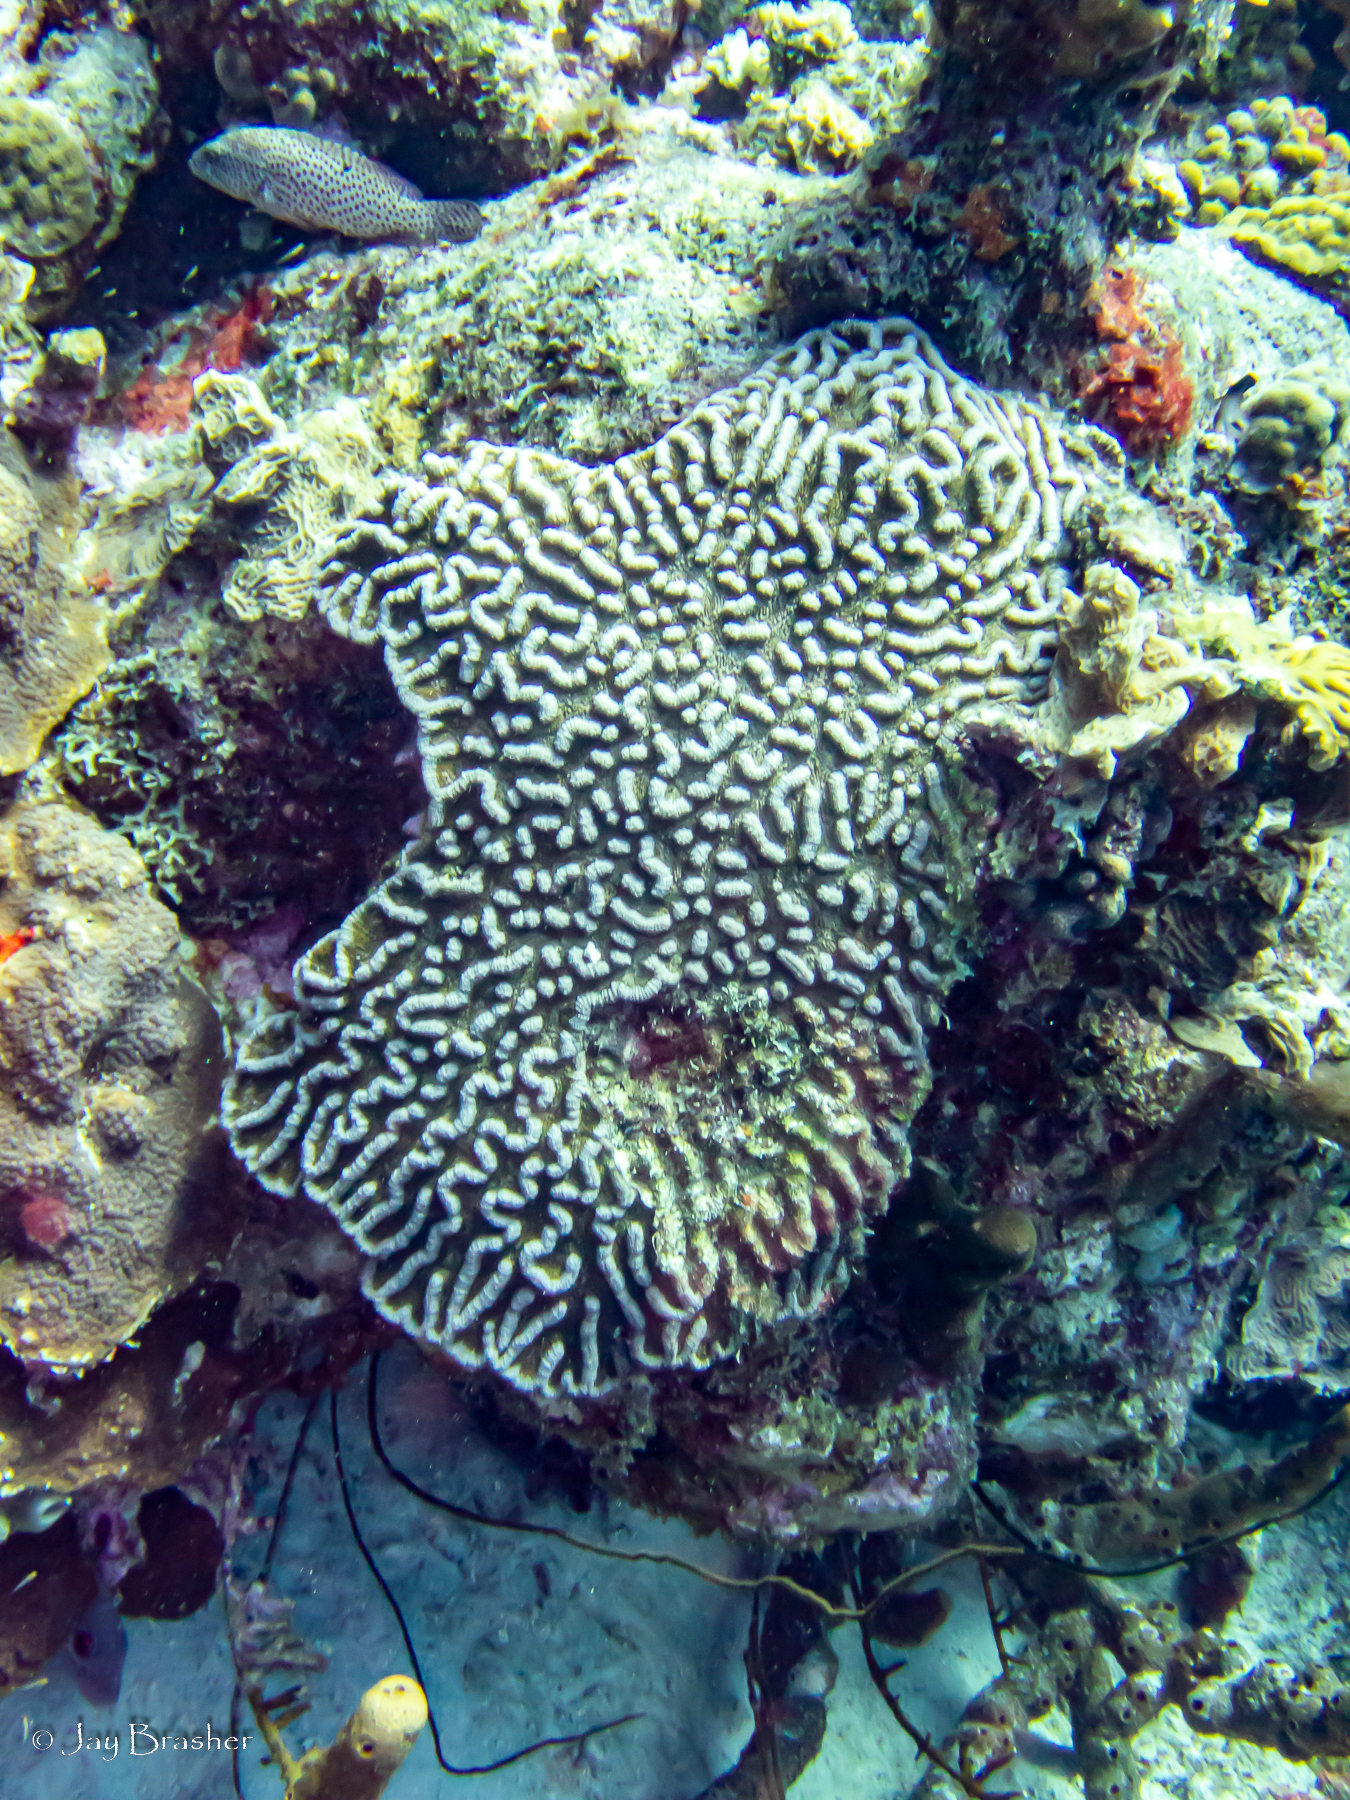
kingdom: Animalia
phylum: Chordata
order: Perciformes
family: Serranidae
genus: Cephalopholis
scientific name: Cephalopholis cruentata
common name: Graysby
